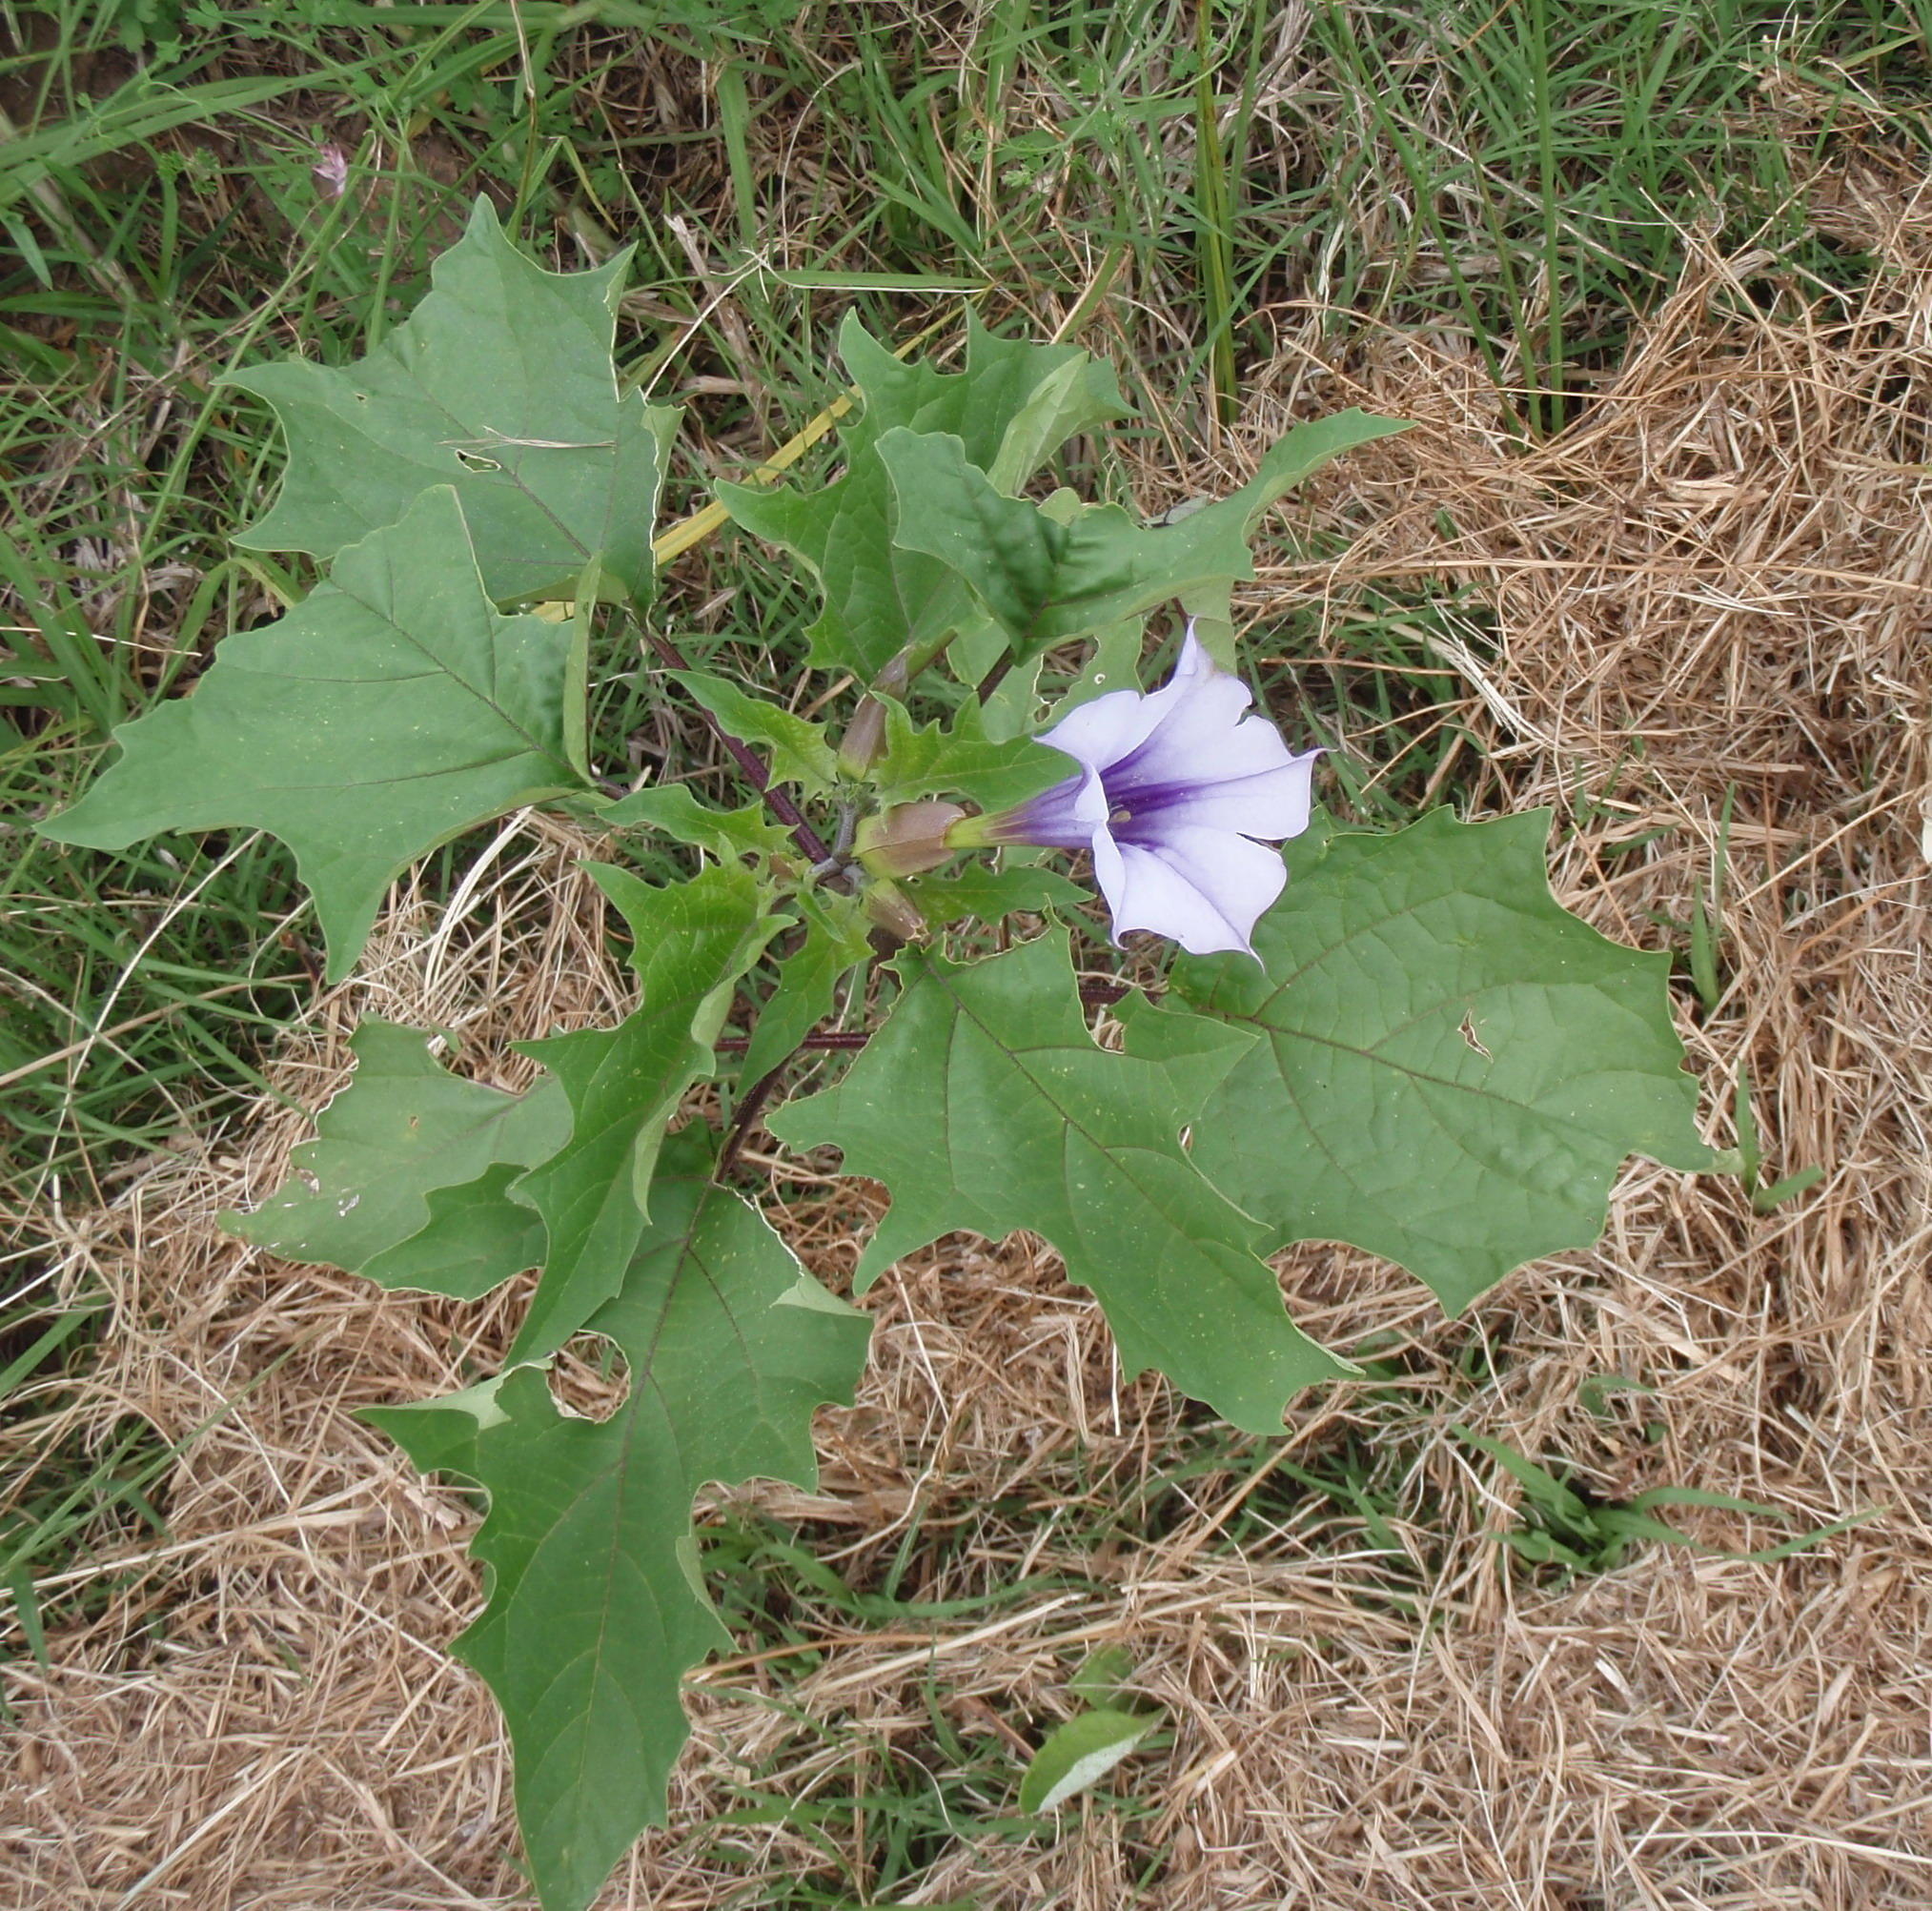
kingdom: Plantae
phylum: Tracheophyta
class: Magnoliopsida
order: Solanales
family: Solanaceae
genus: Datura
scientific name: Datura stramonium
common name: Thorn-apple
